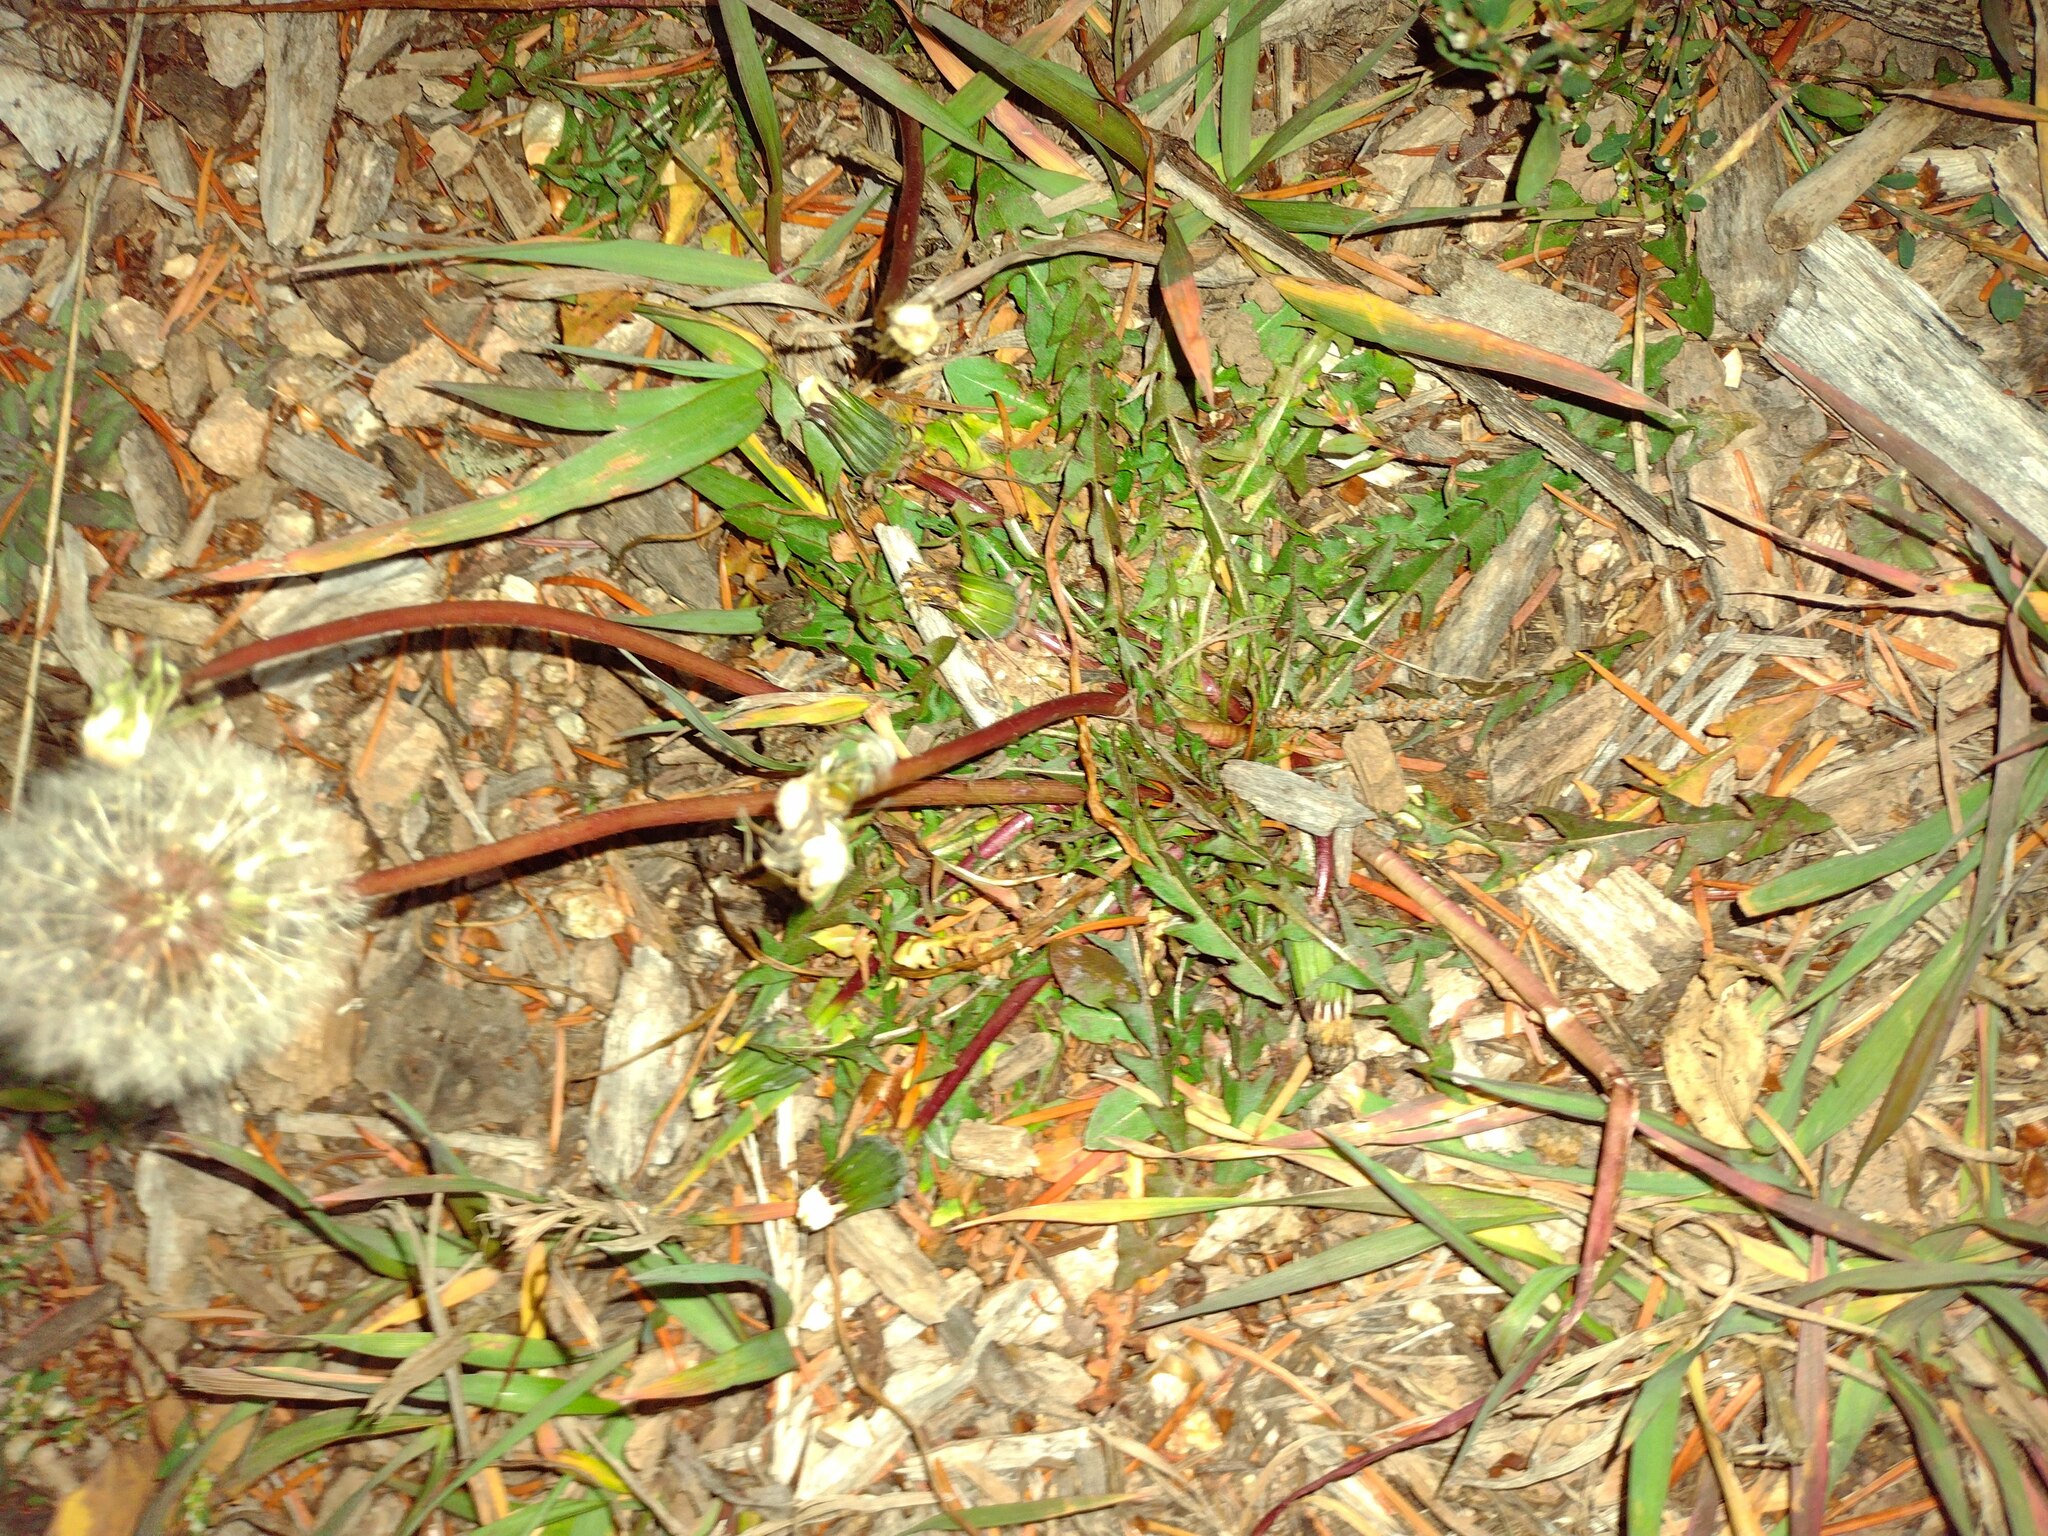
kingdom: Plantae
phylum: Tracheophyta
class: Magnoliopsida
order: Asterales
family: Asteraceae
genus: Taraxacum
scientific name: Taraxacum officinale
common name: Common dandelion
